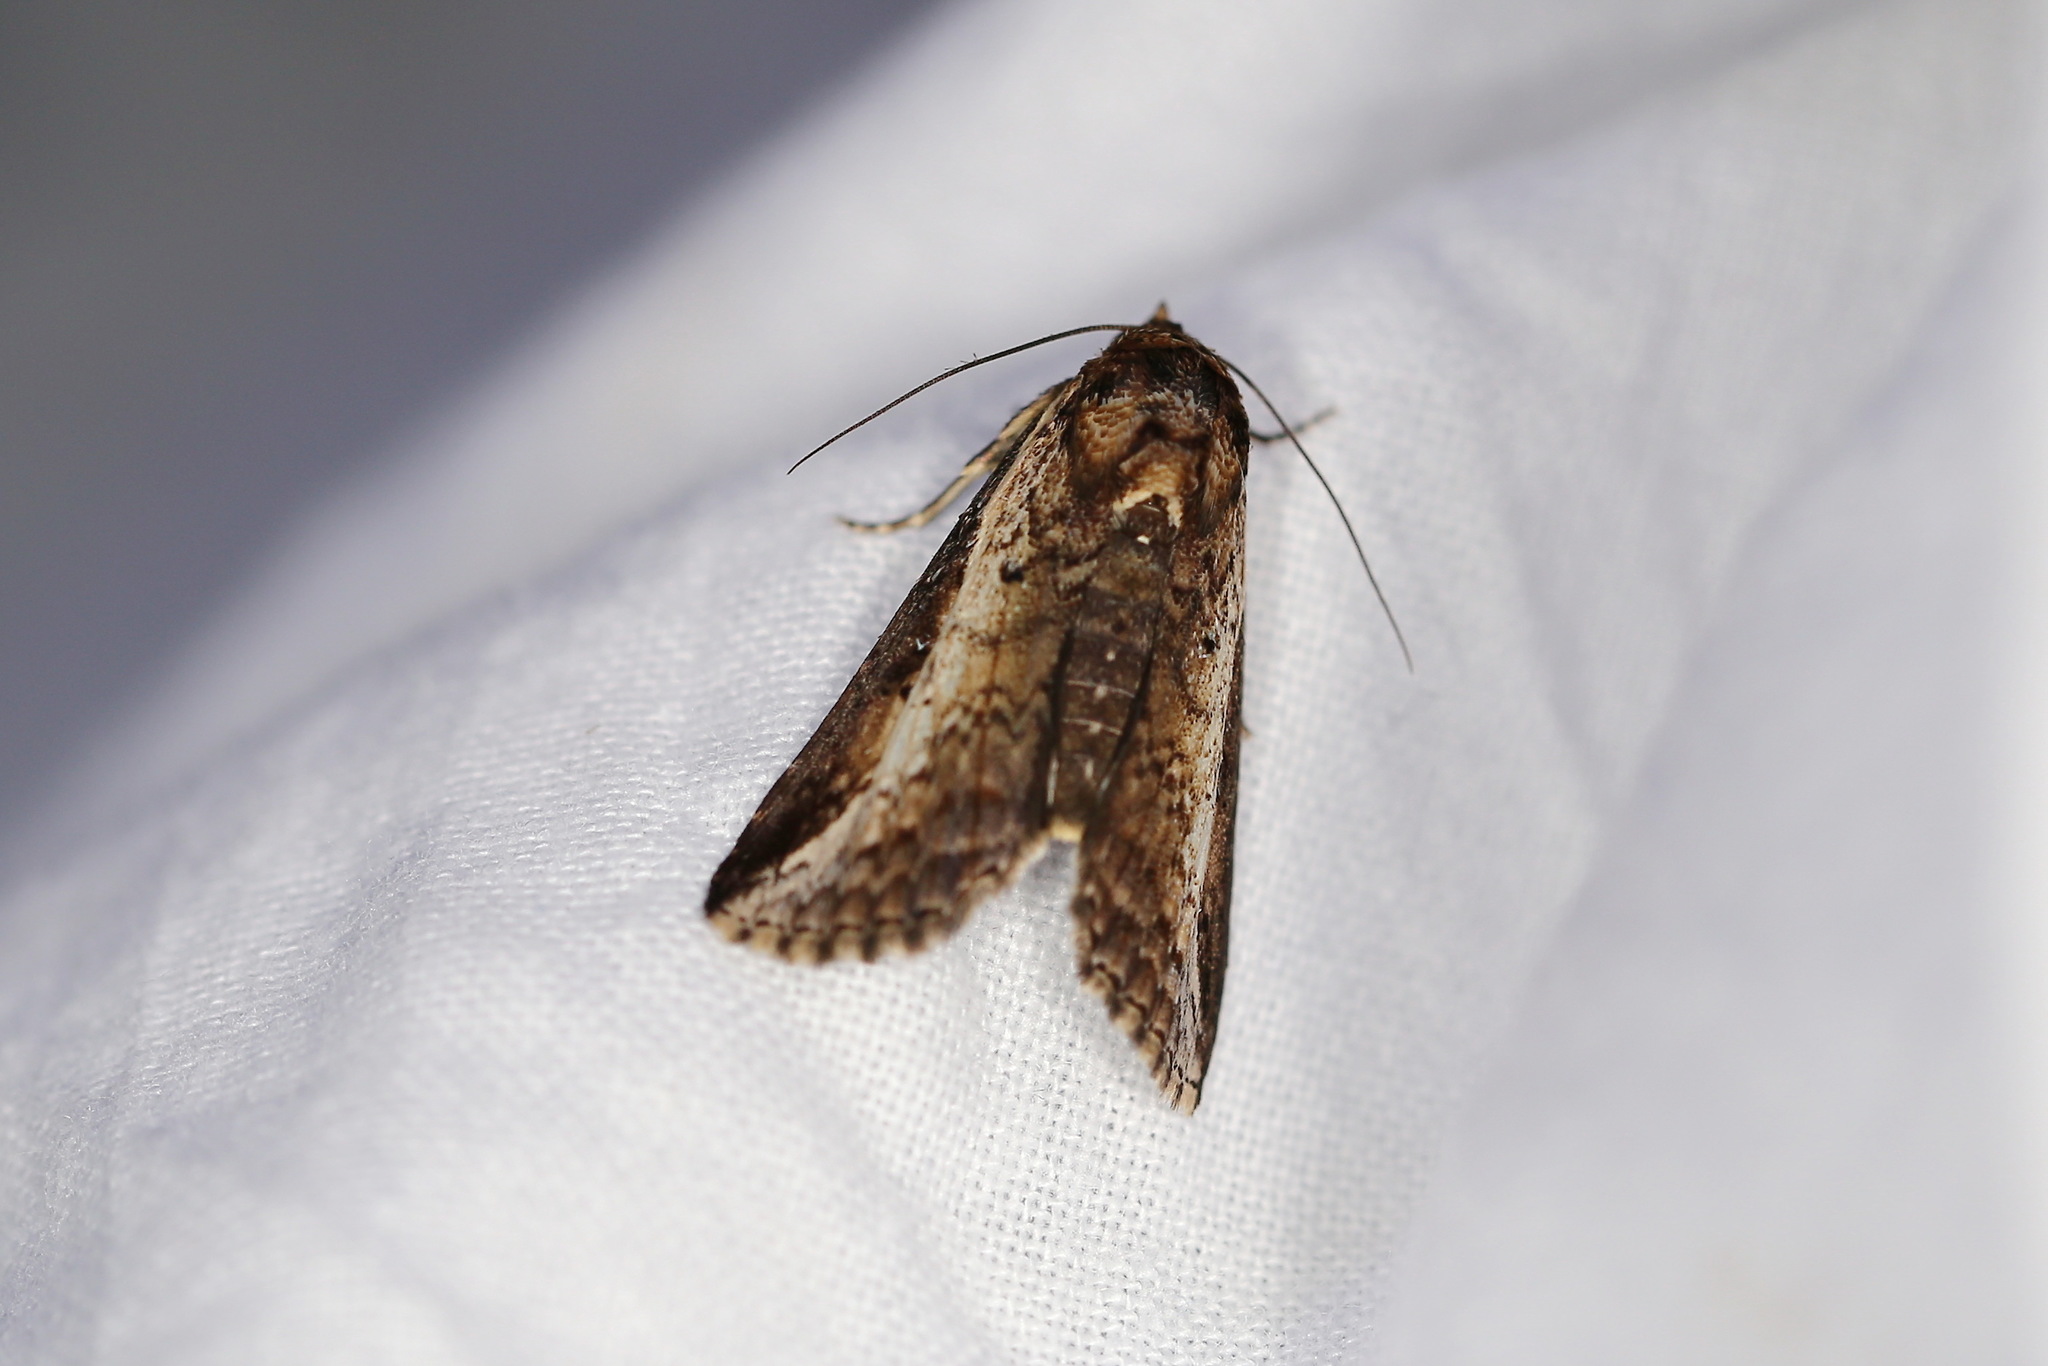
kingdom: Animalia
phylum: Arthropoda
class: Insecta
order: Lepidoptera
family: Euteliidae
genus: Lophoptera
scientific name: Lophoptera vittigera
